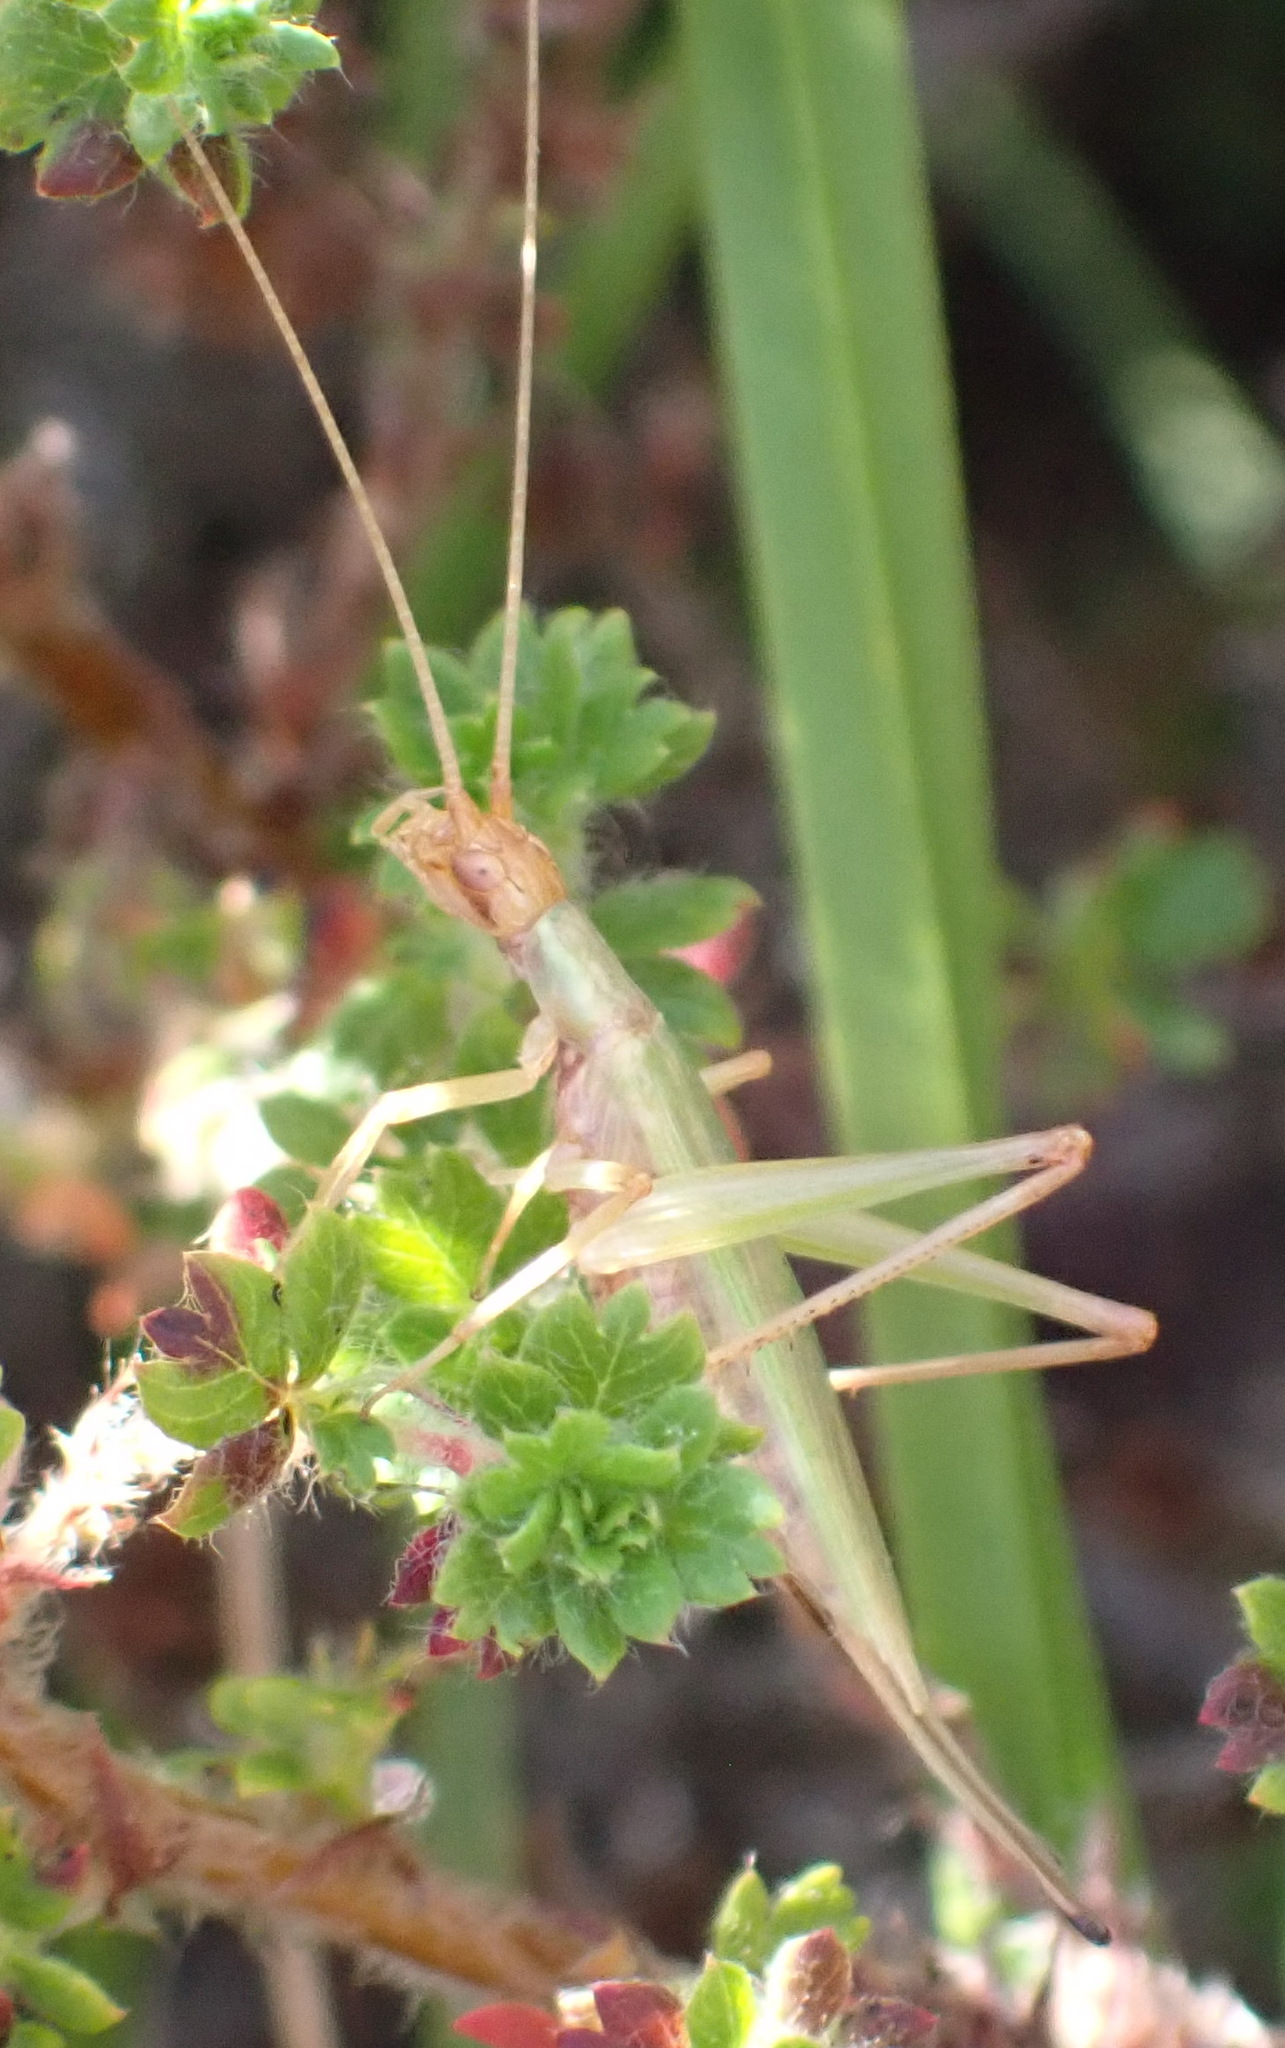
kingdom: Animalia
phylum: Arthropoda
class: Insecta
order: Orthoptera
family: Gryllidae
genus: Oecanthus
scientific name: Oecanthus capensis
